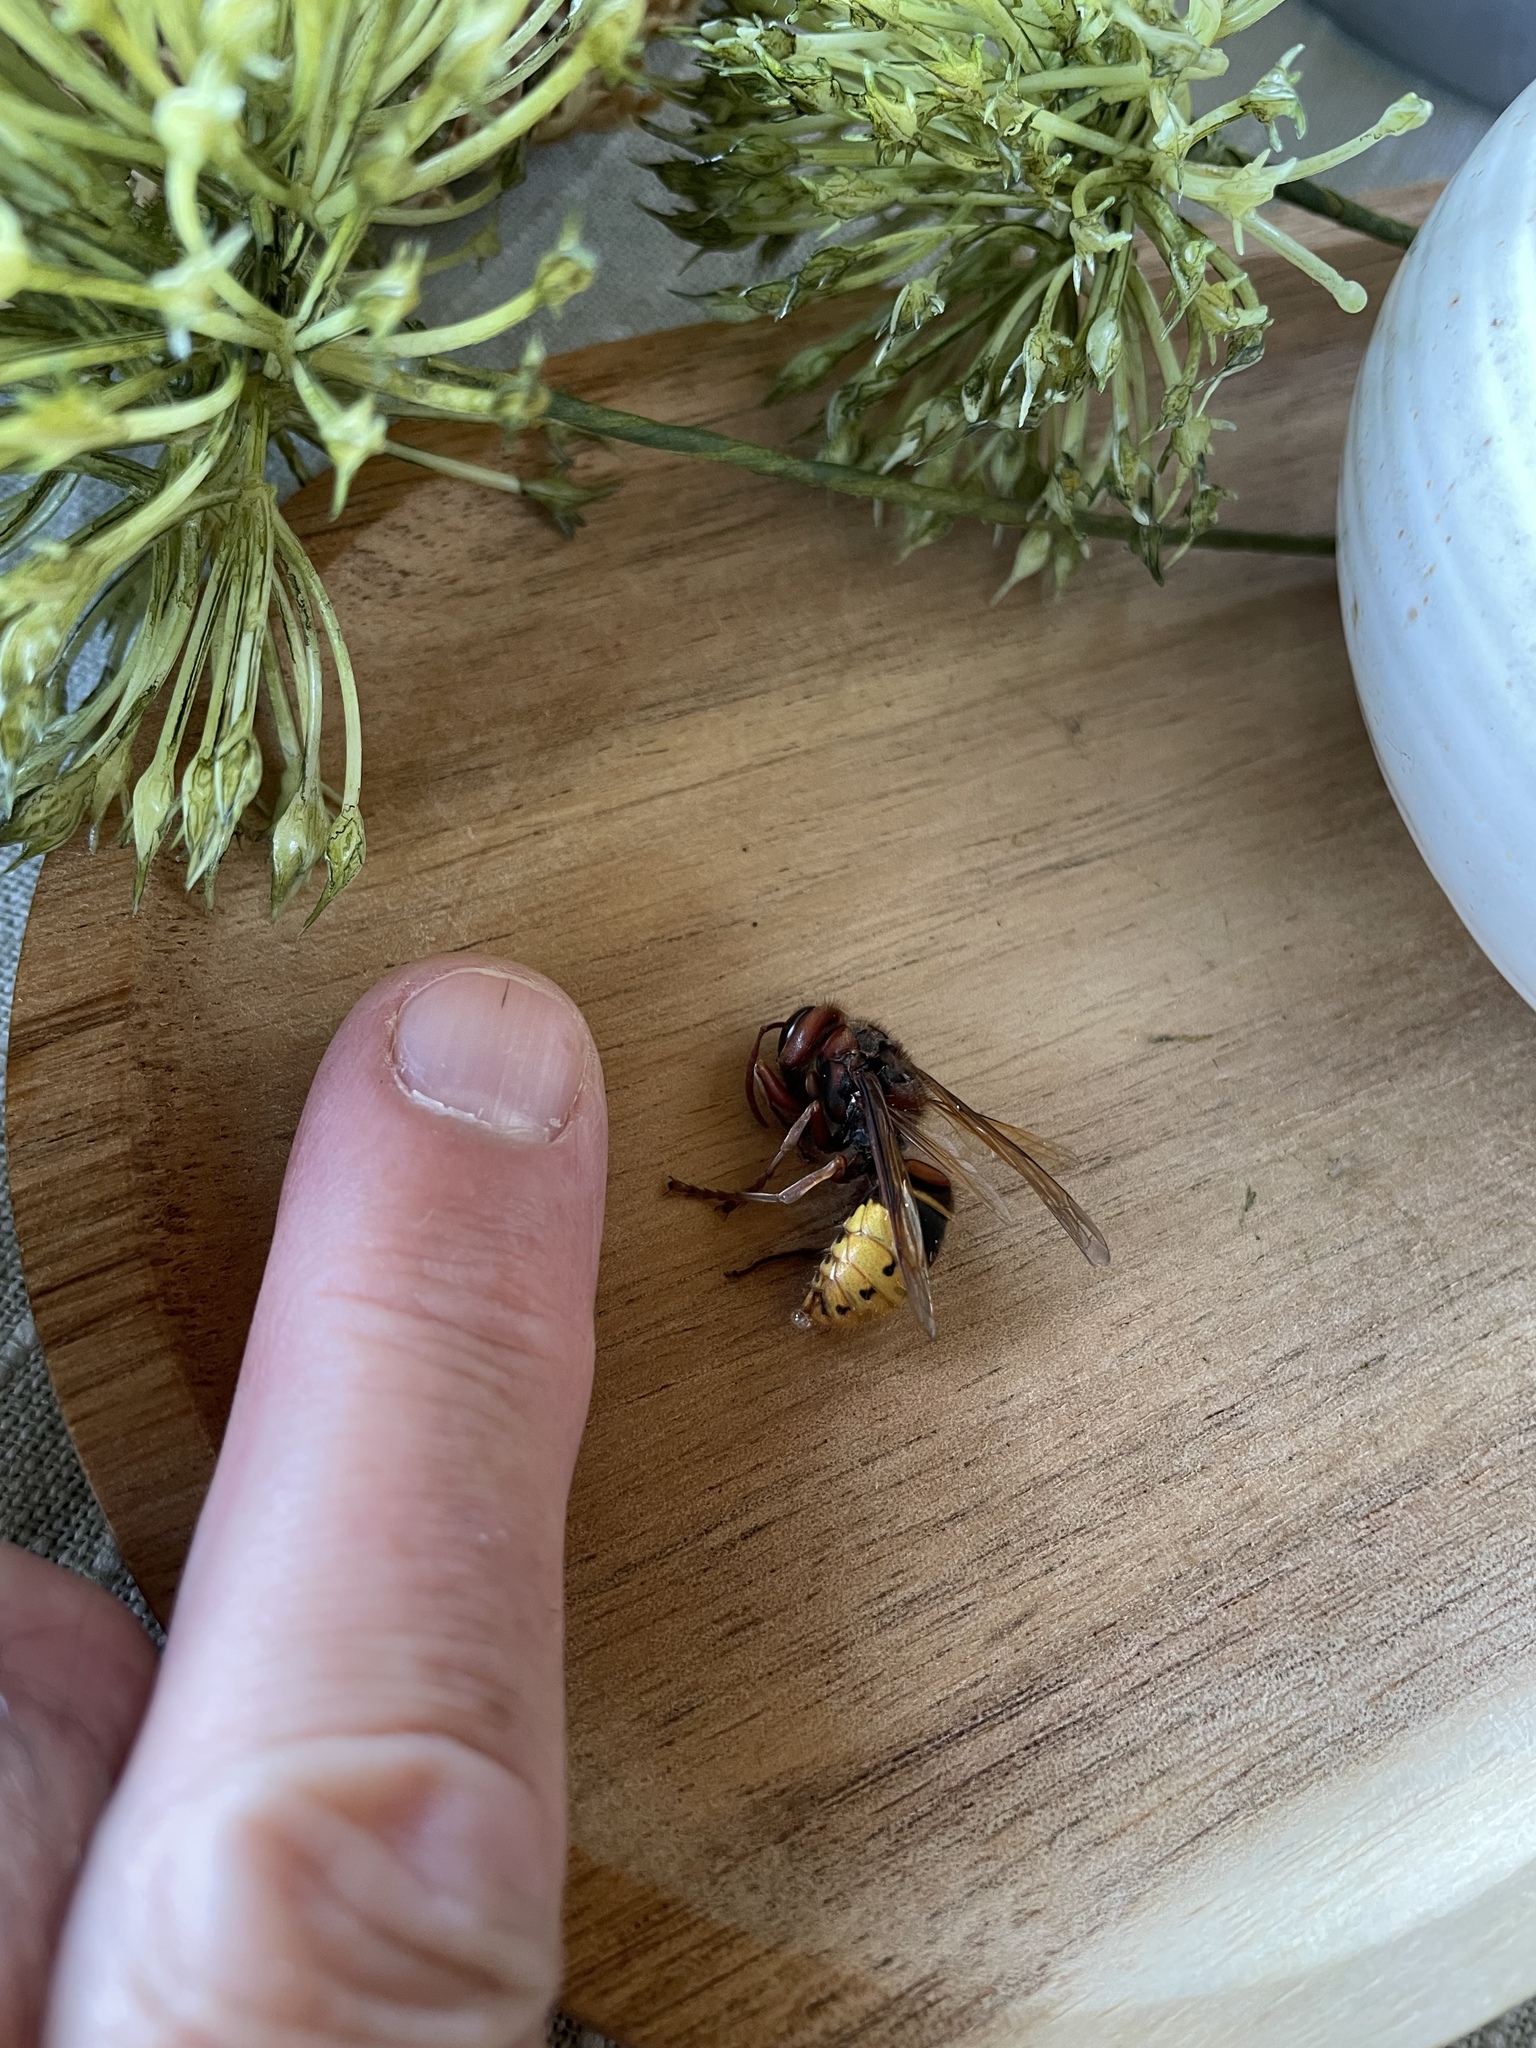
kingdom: Animalia
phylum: Arthropoda
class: Insecta
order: Hymenoptera
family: Vespidae
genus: Vespa
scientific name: Vespa crabro
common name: Hornet
